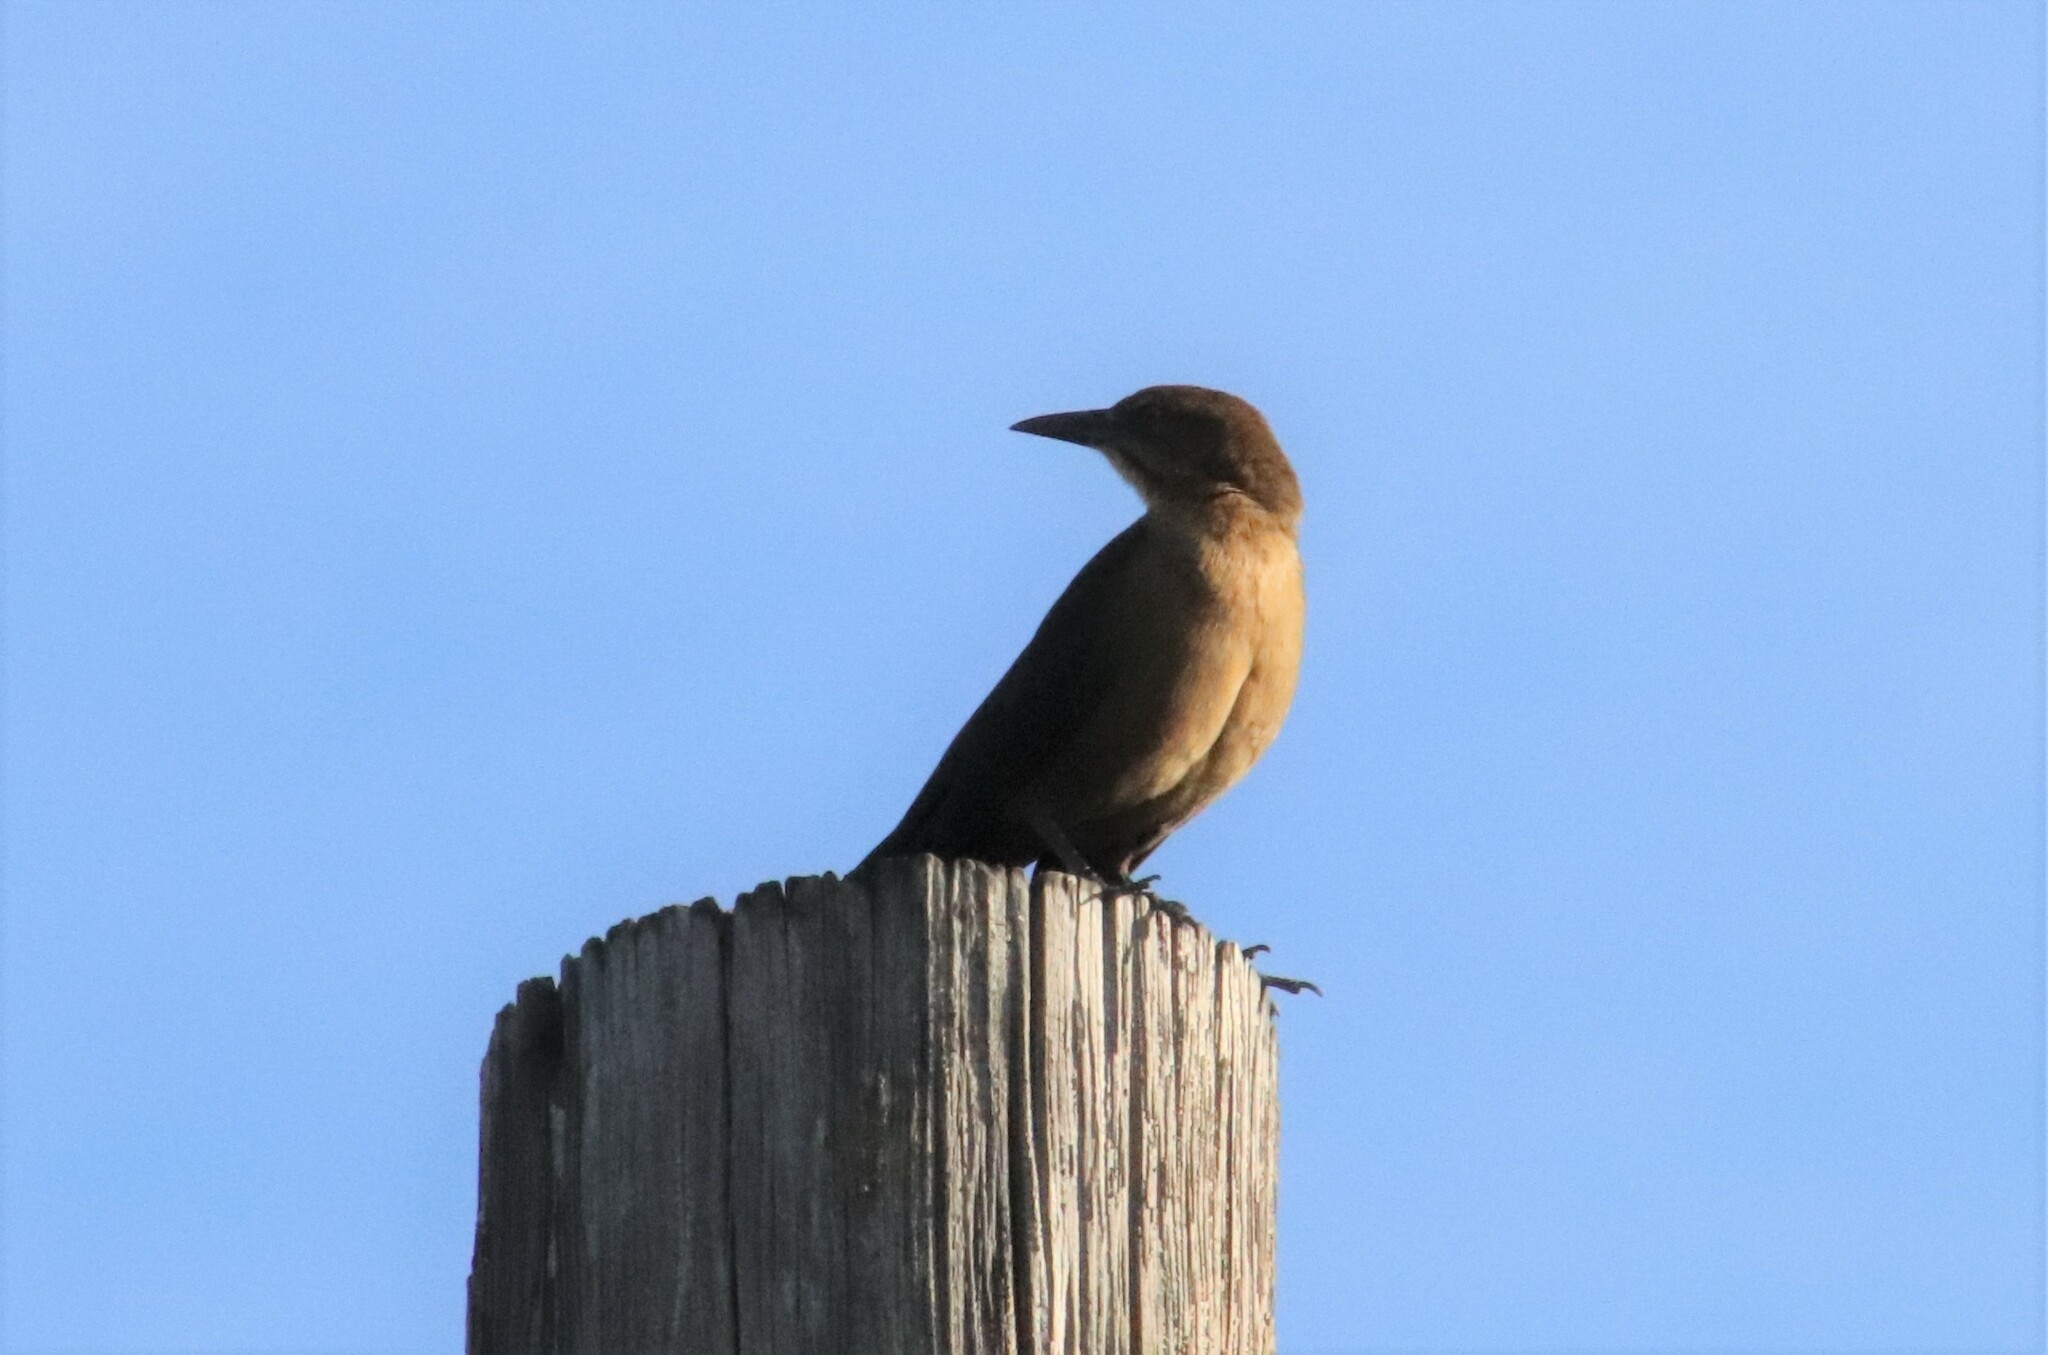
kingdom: Animalia
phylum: Chordata
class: Aves
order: Passeriformes
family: Icteridae
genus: Quiscalus
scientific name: Quiscalus mexicanus
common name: Great-tailed grackle
